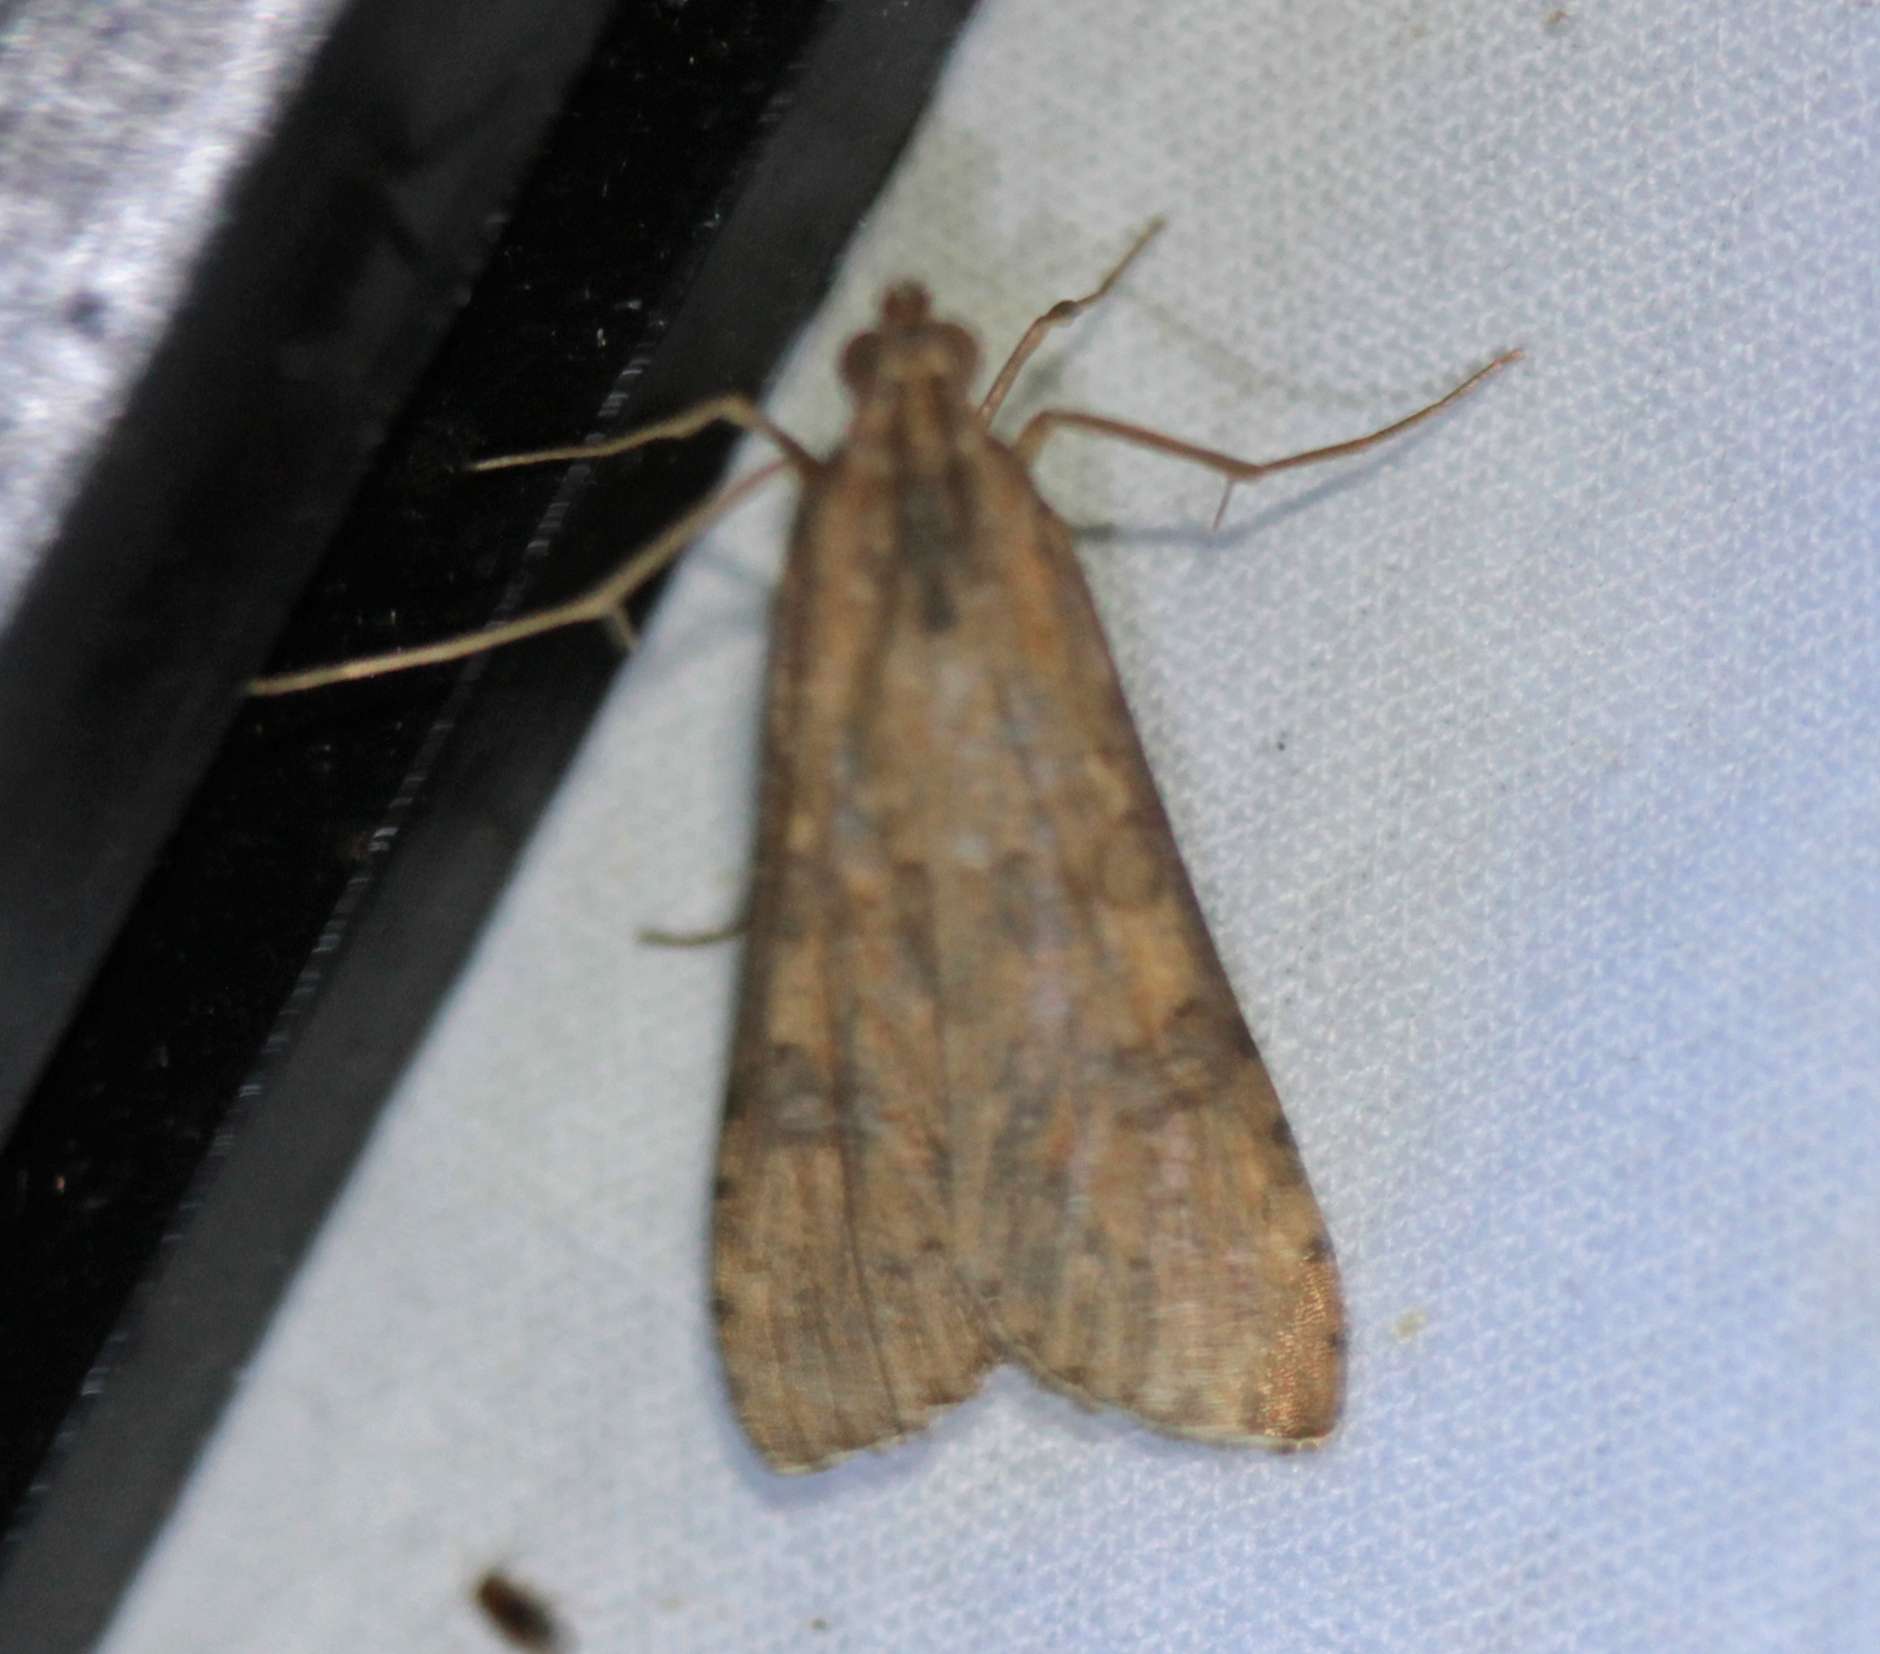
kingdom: Animalia
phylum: Arthropoda
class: Insecta
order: Lepidoptera
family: Crambidae
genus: Nomophila
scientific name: Nomophila nearctica
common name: American rush veneer
